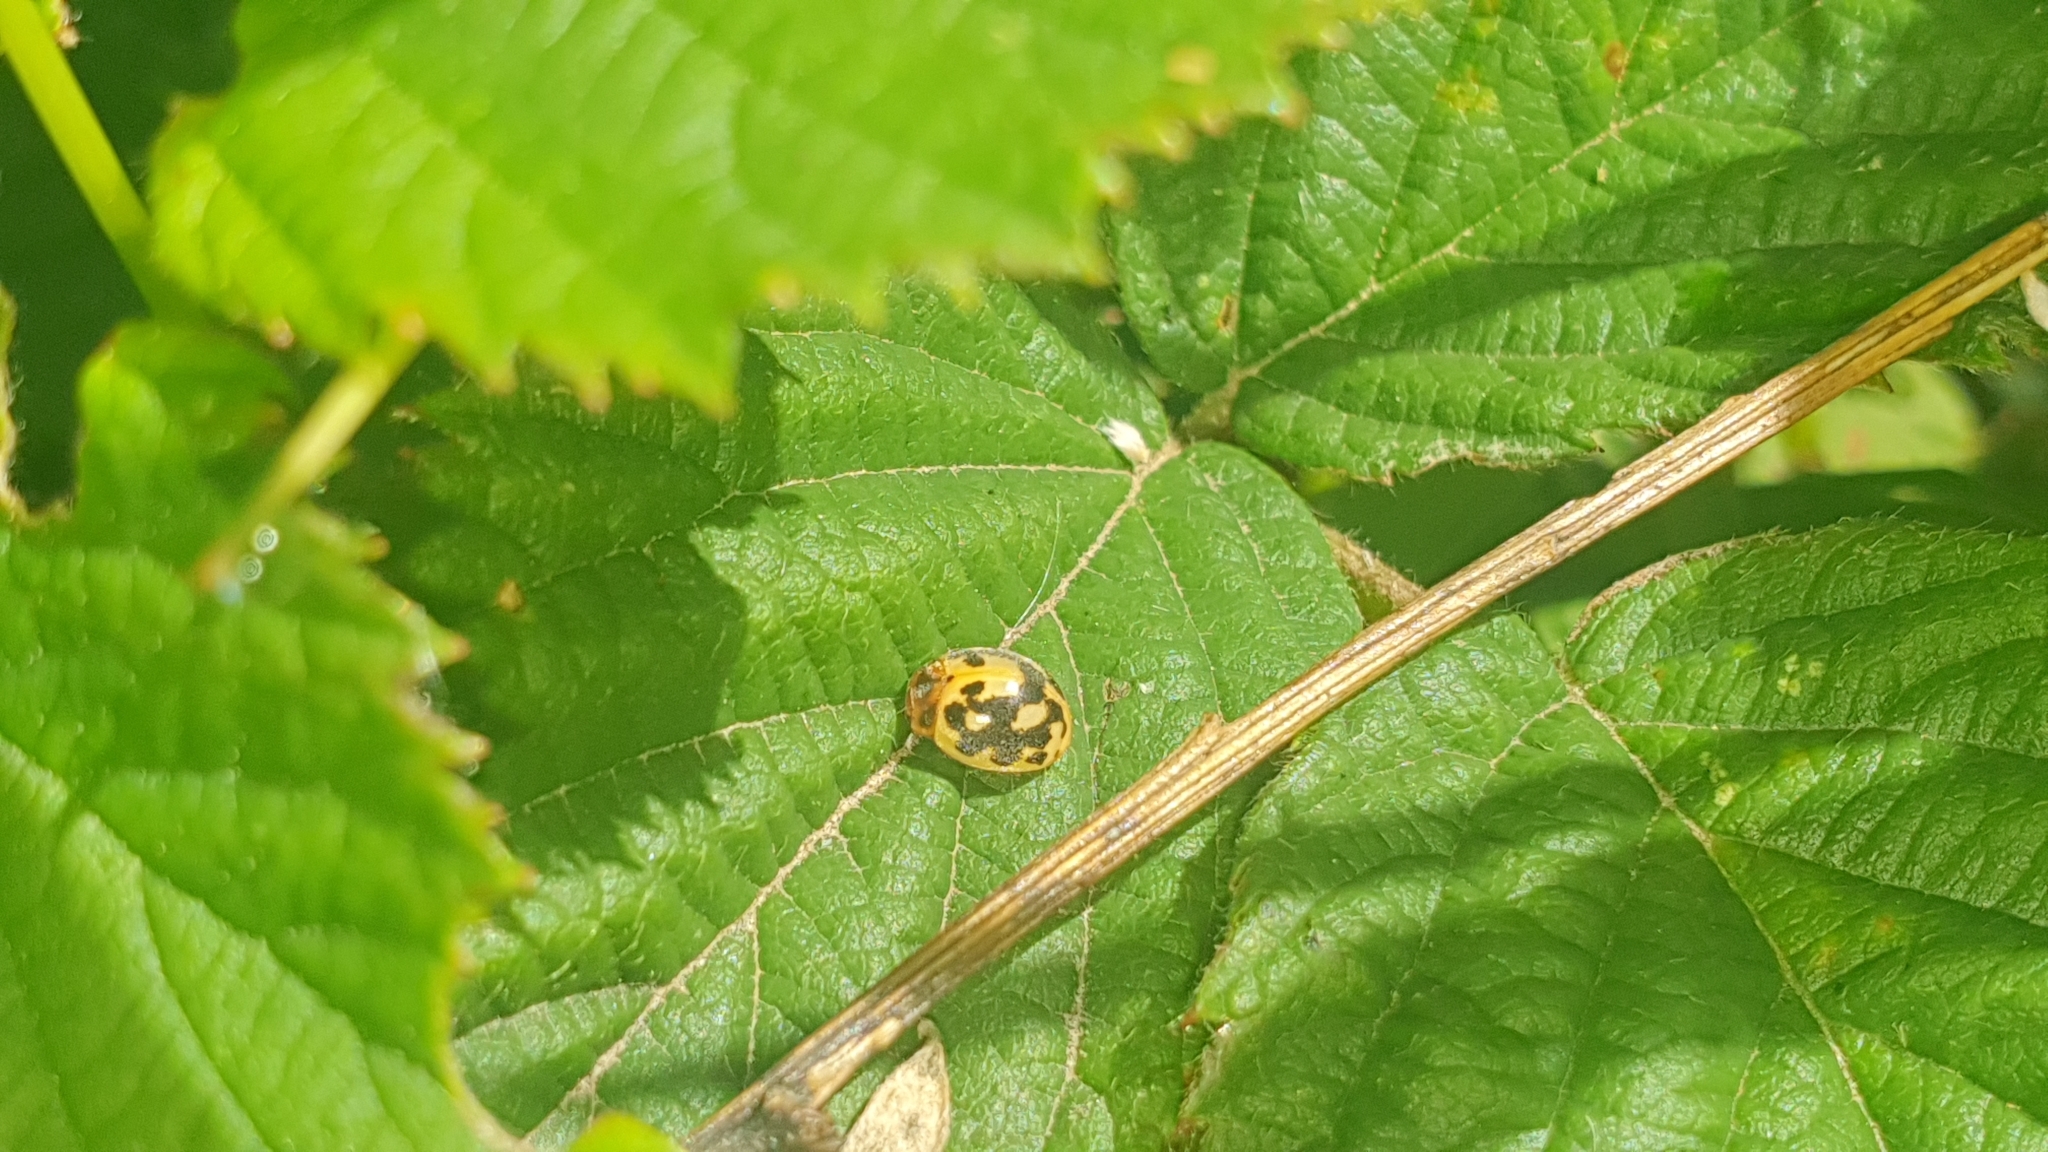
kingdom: Animalia
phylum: Arthropoda
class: Insecta
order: Coleoptera
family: Coccinellidae
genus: Subcoccinella
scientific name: Subcoccinella vigintiquatuorpunctata
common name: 24-spot ladybird
